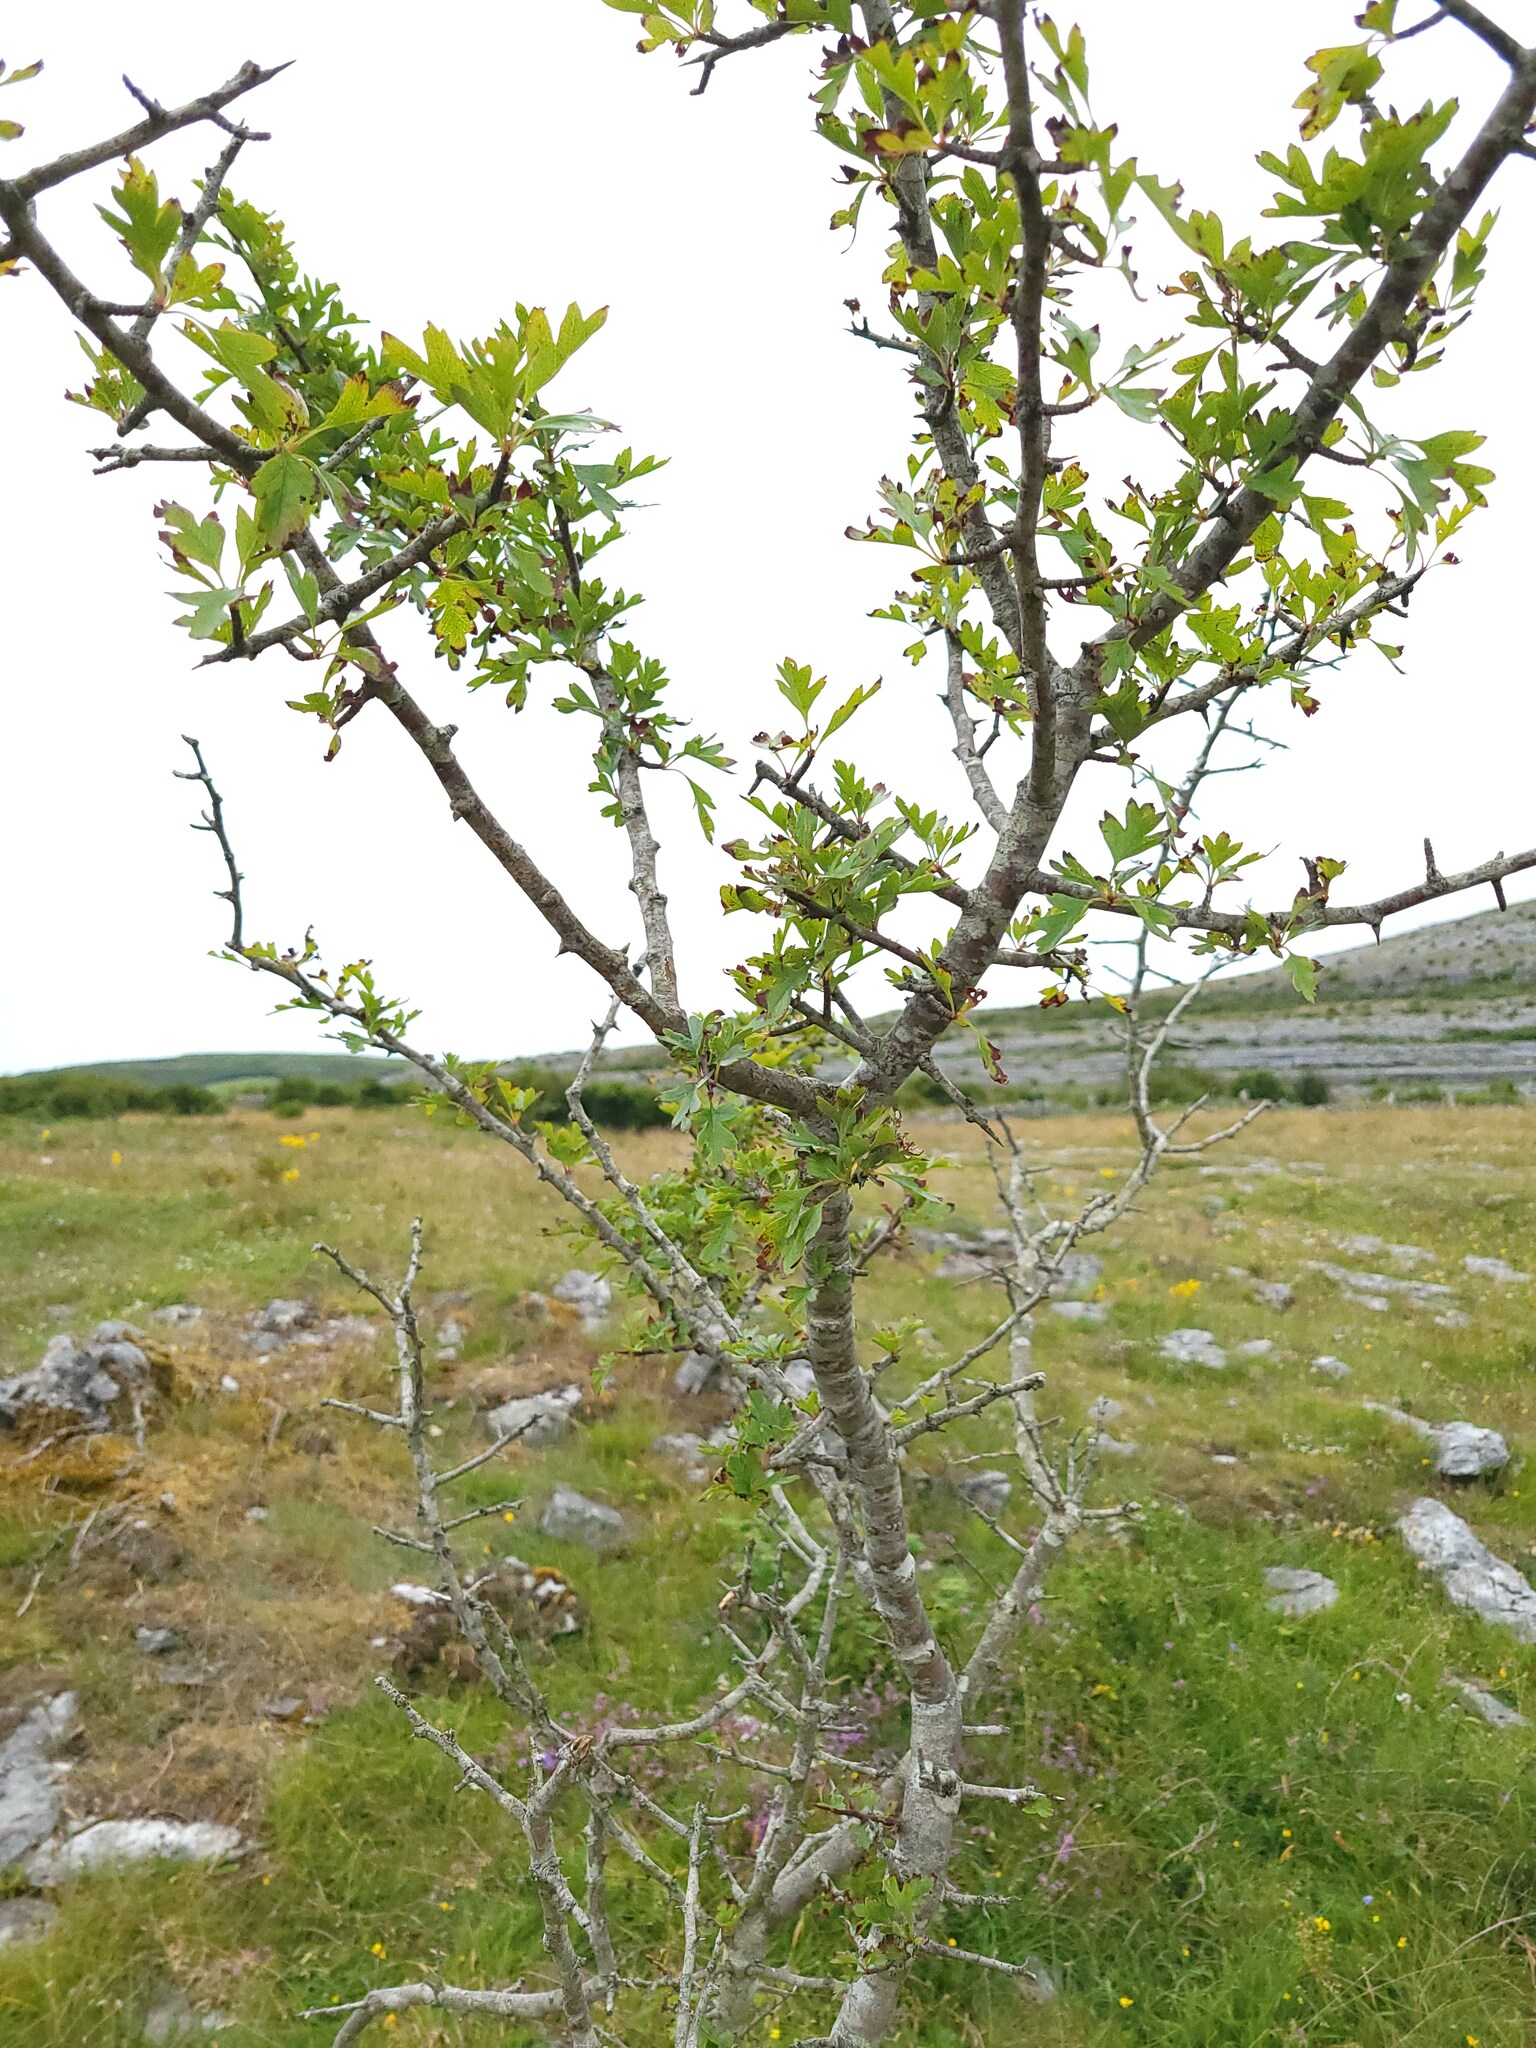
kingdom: Plantae
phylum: Tracheophyta
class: Magnoliopsida
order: Rosales
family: Rosaceae
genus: Crataegus
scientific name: Crataegus monogyna
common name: Hawthorn
